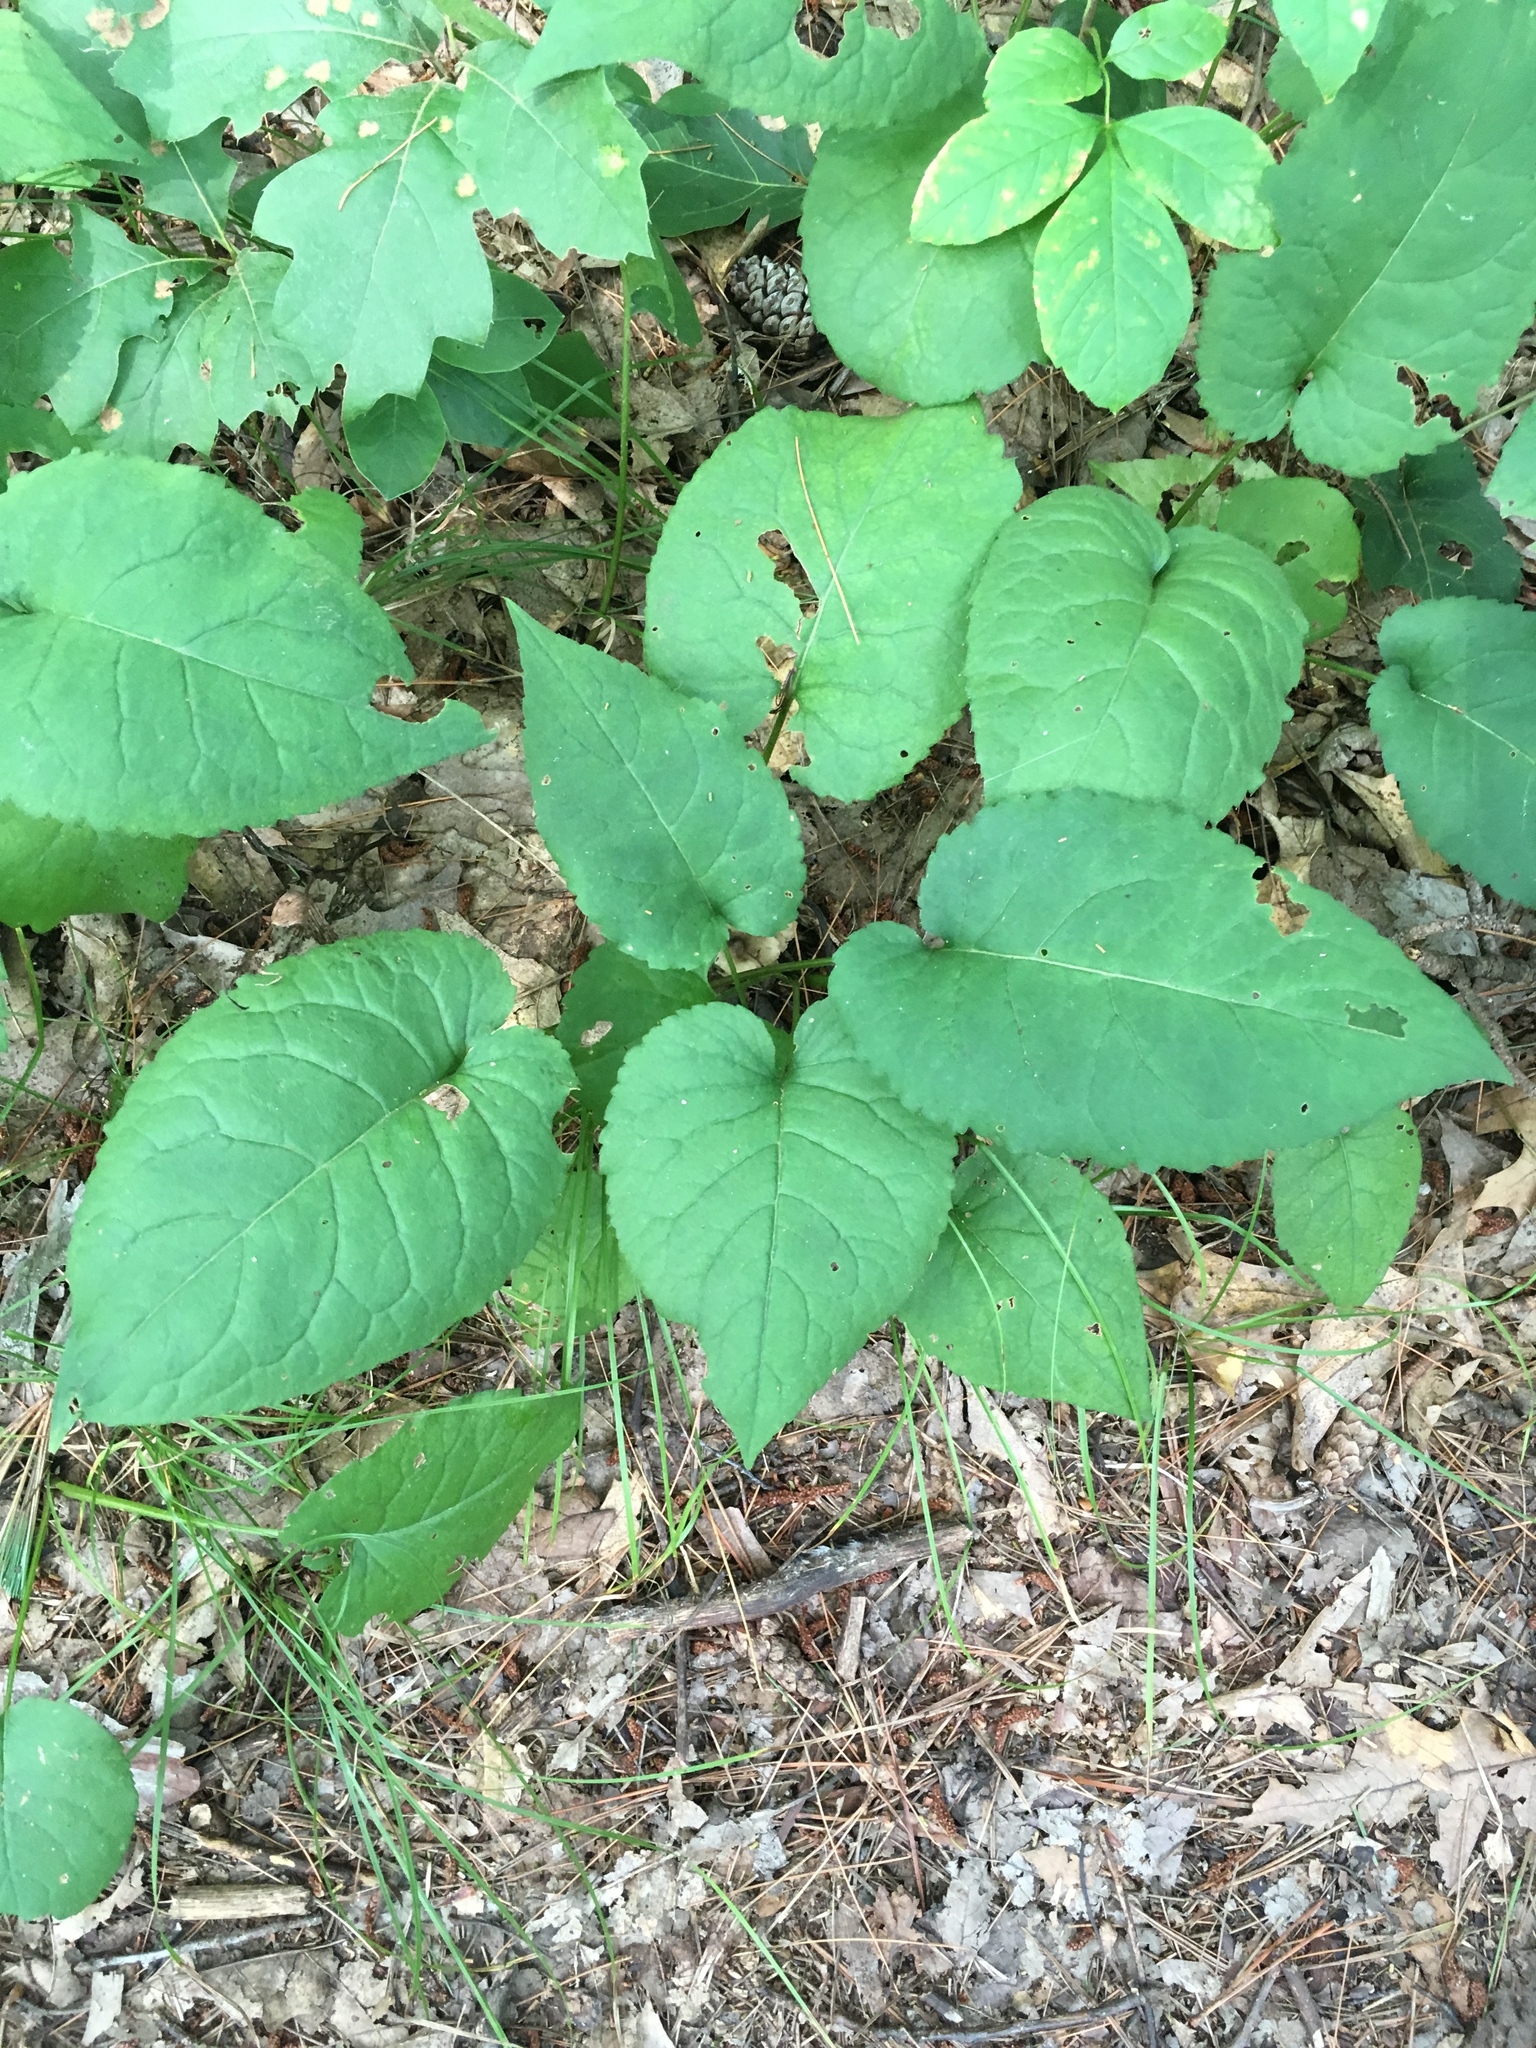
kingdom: Plantae
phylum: Tracheophyta
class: Magnoliopsida
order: Asterales
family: Asteraceae
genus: Eurybia
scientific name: Eurybia macrophylla
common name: Big-leaved aster
